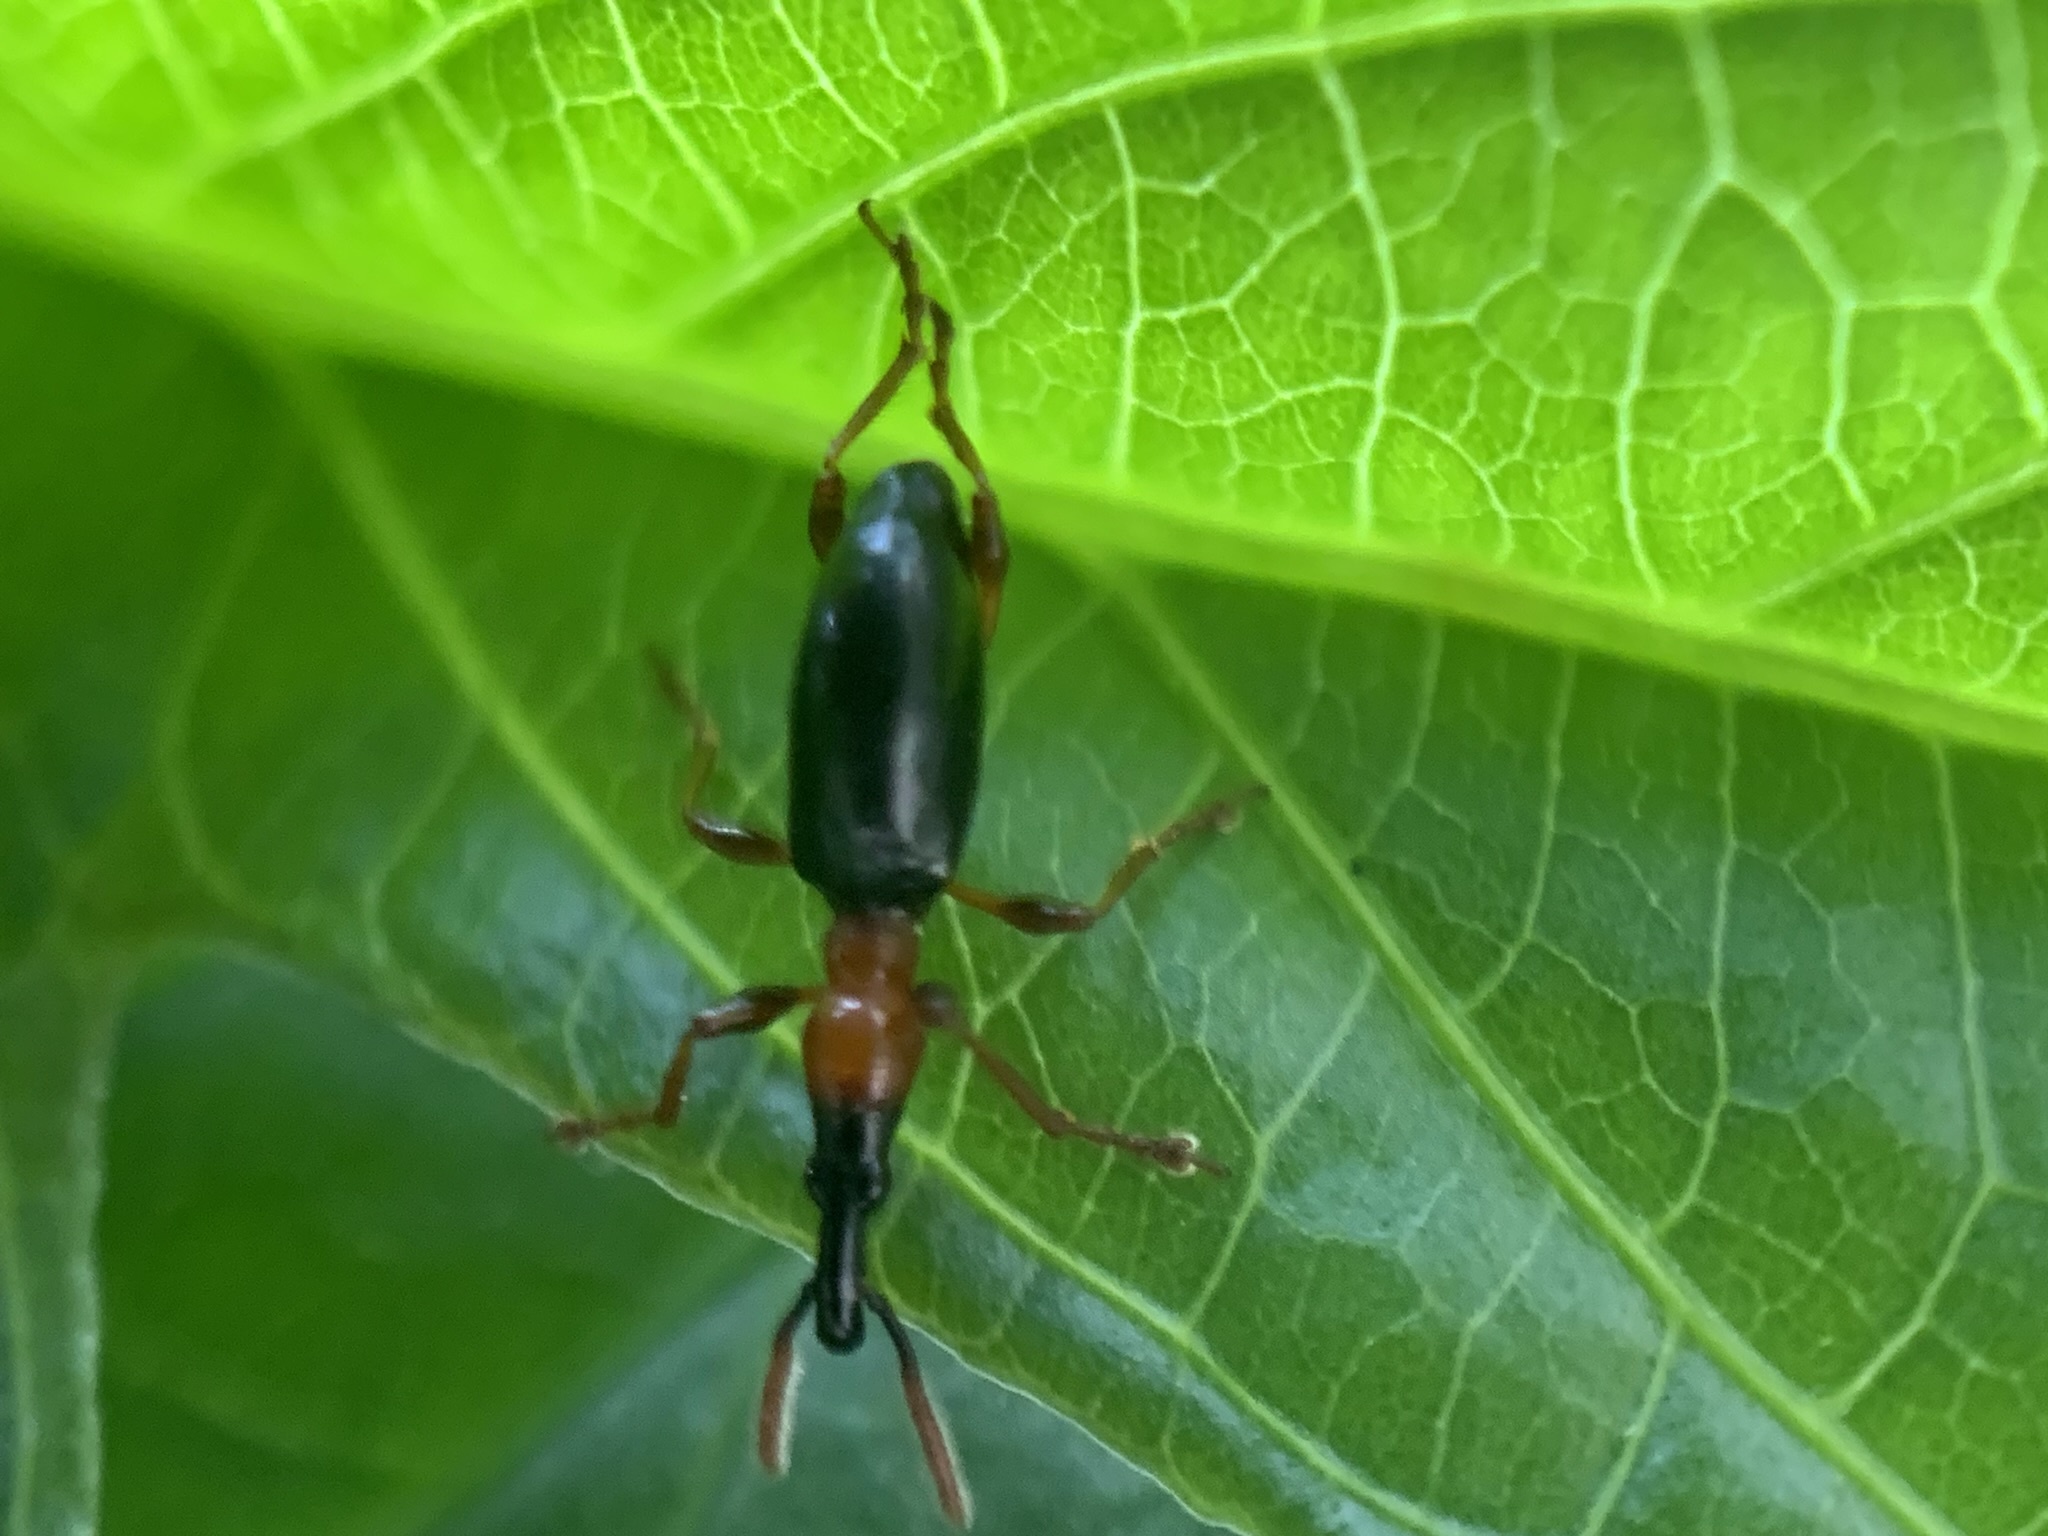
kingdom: Animalia
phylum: Arthropoda
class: Insecta
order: Coleoptera
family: Brentidae
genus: Cylas
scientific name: Cylas formicarius
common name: Sweetpotato weevil
